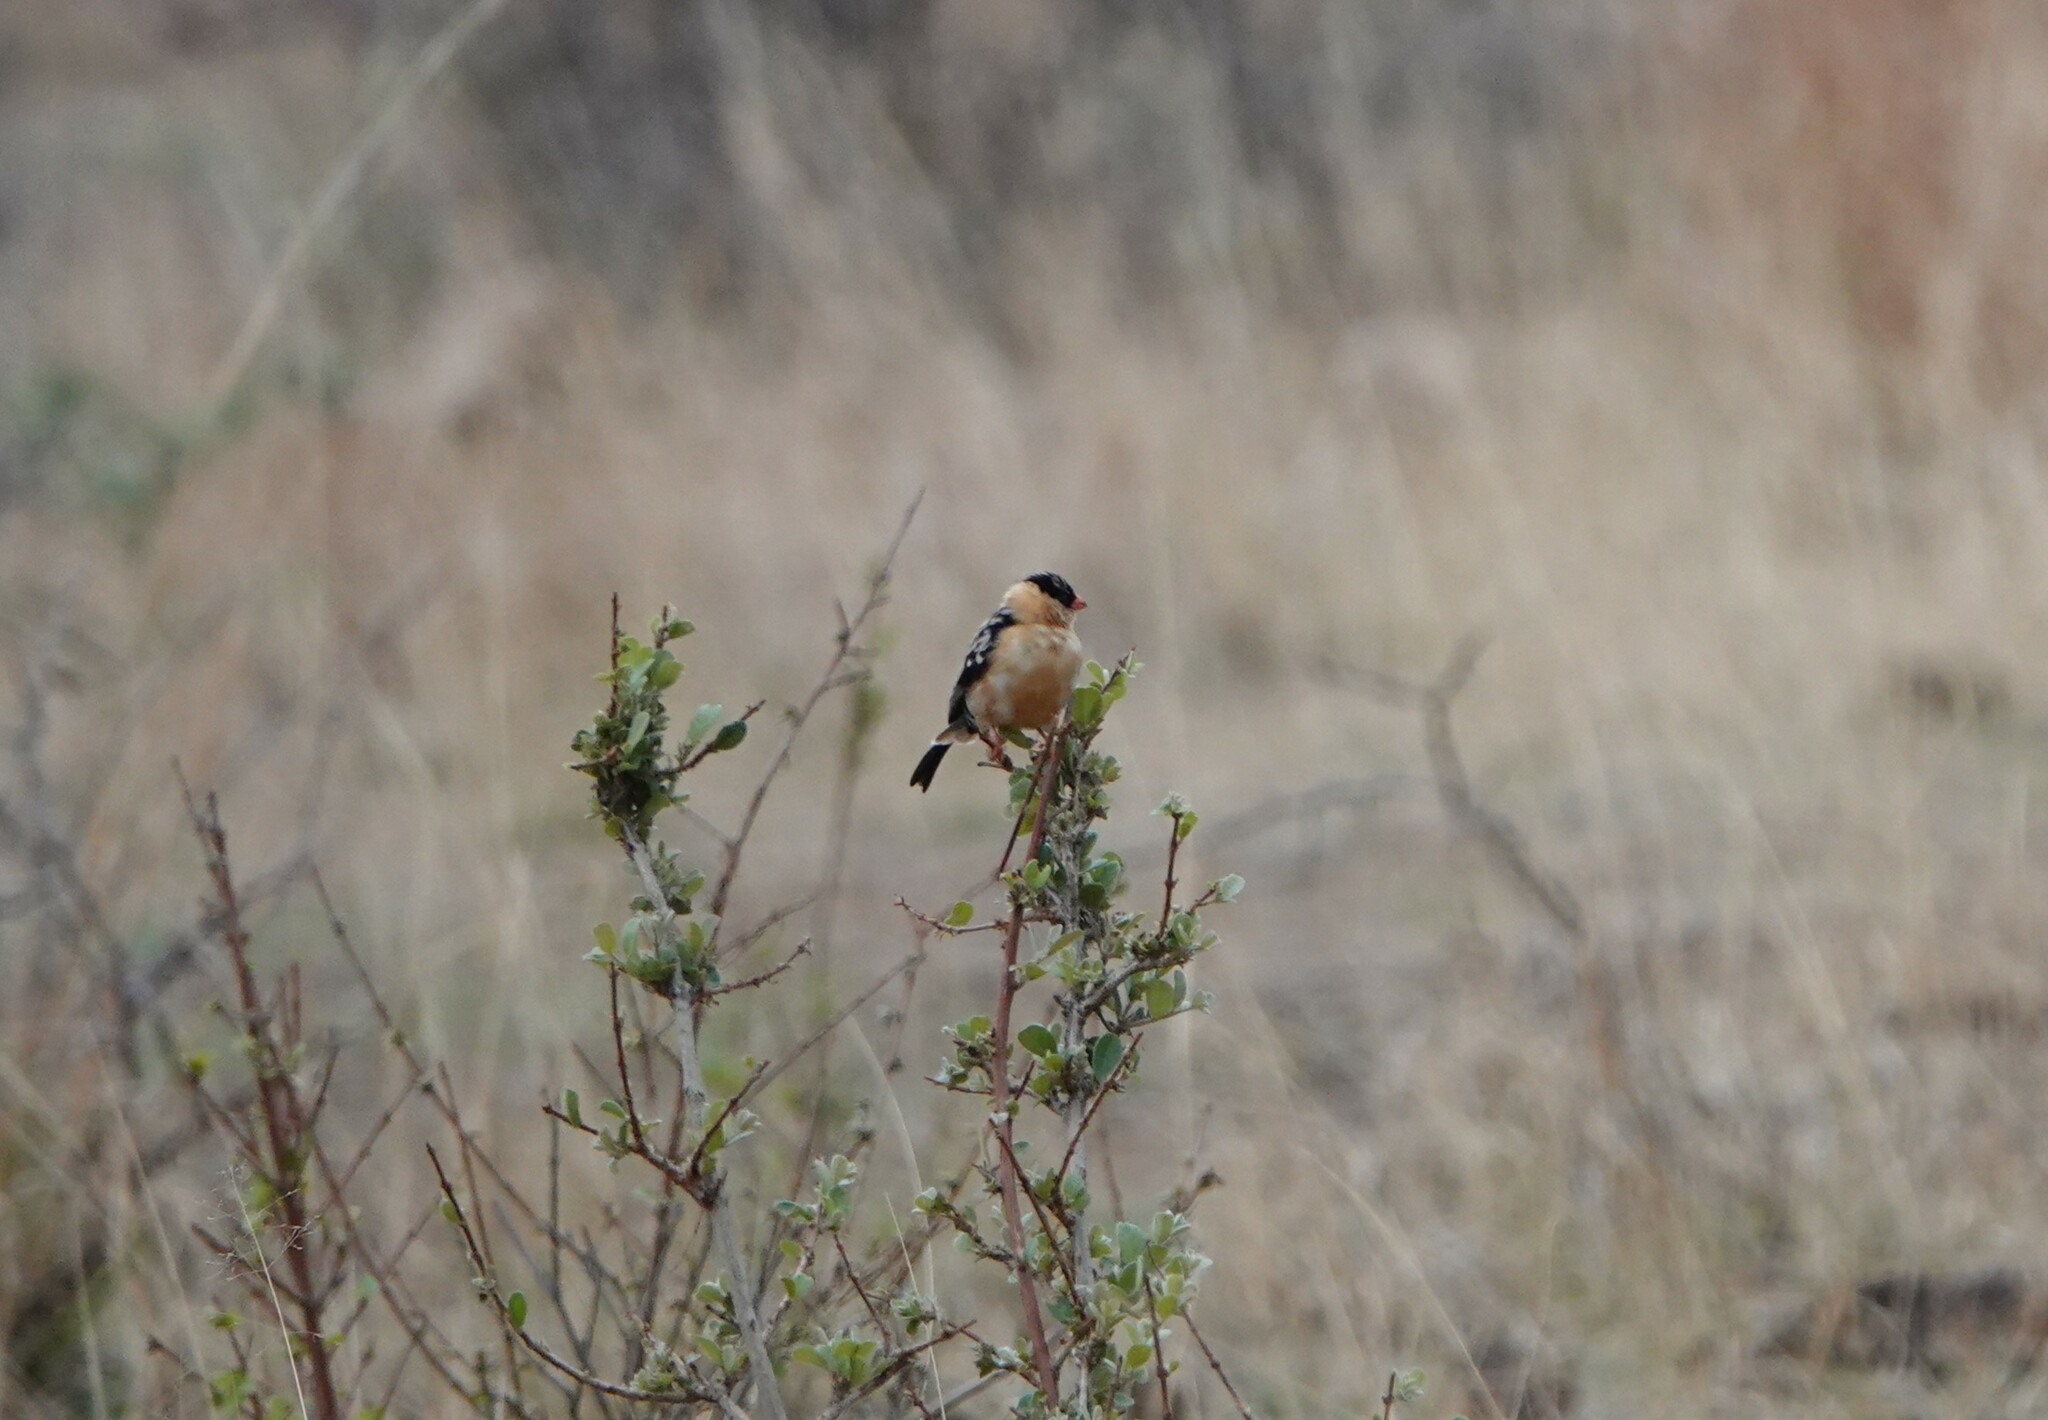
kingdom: Animalia
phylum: Chordata
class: Aves
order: Passeriformes
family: Viduidae
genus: Vidua
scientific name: Vidua regia
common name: Shaft-tailed whydah
